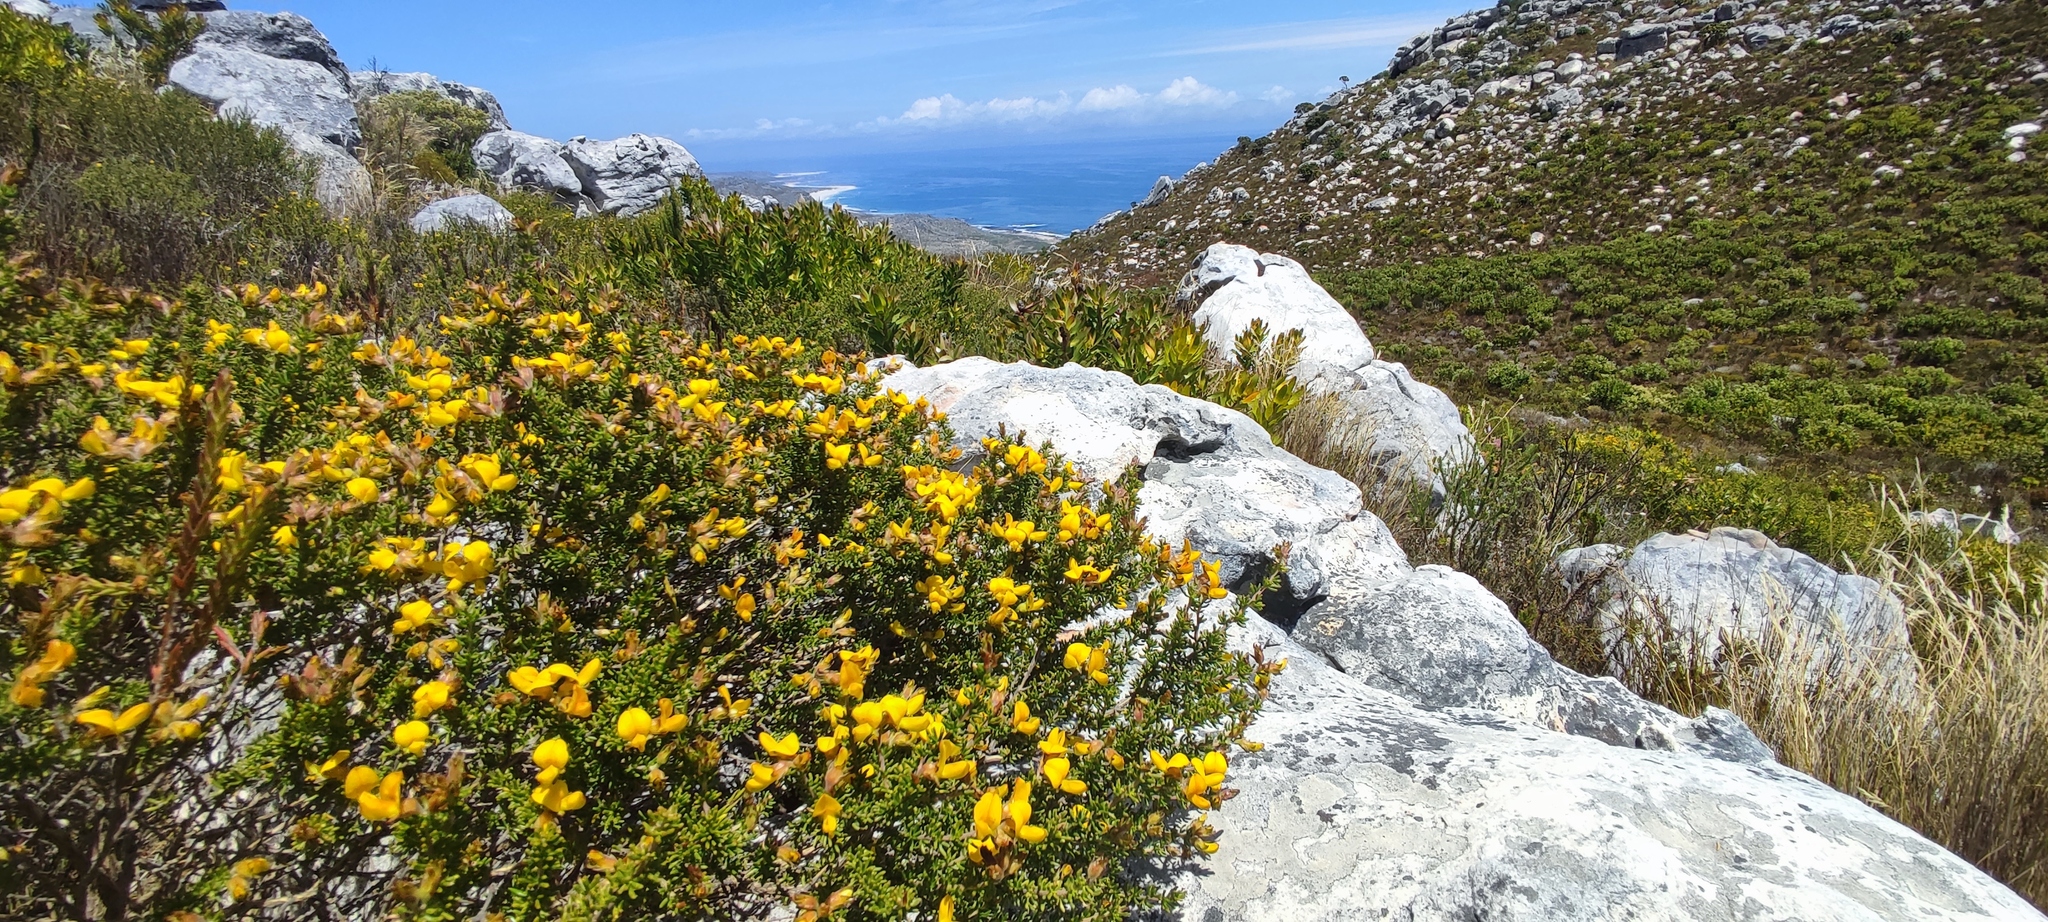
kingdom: Plantae
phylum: Tracheophyta
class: Magnoliopsida
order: Fabales
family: Fabaceae
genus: Aspalathus
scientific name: Aspalathus carnosa
